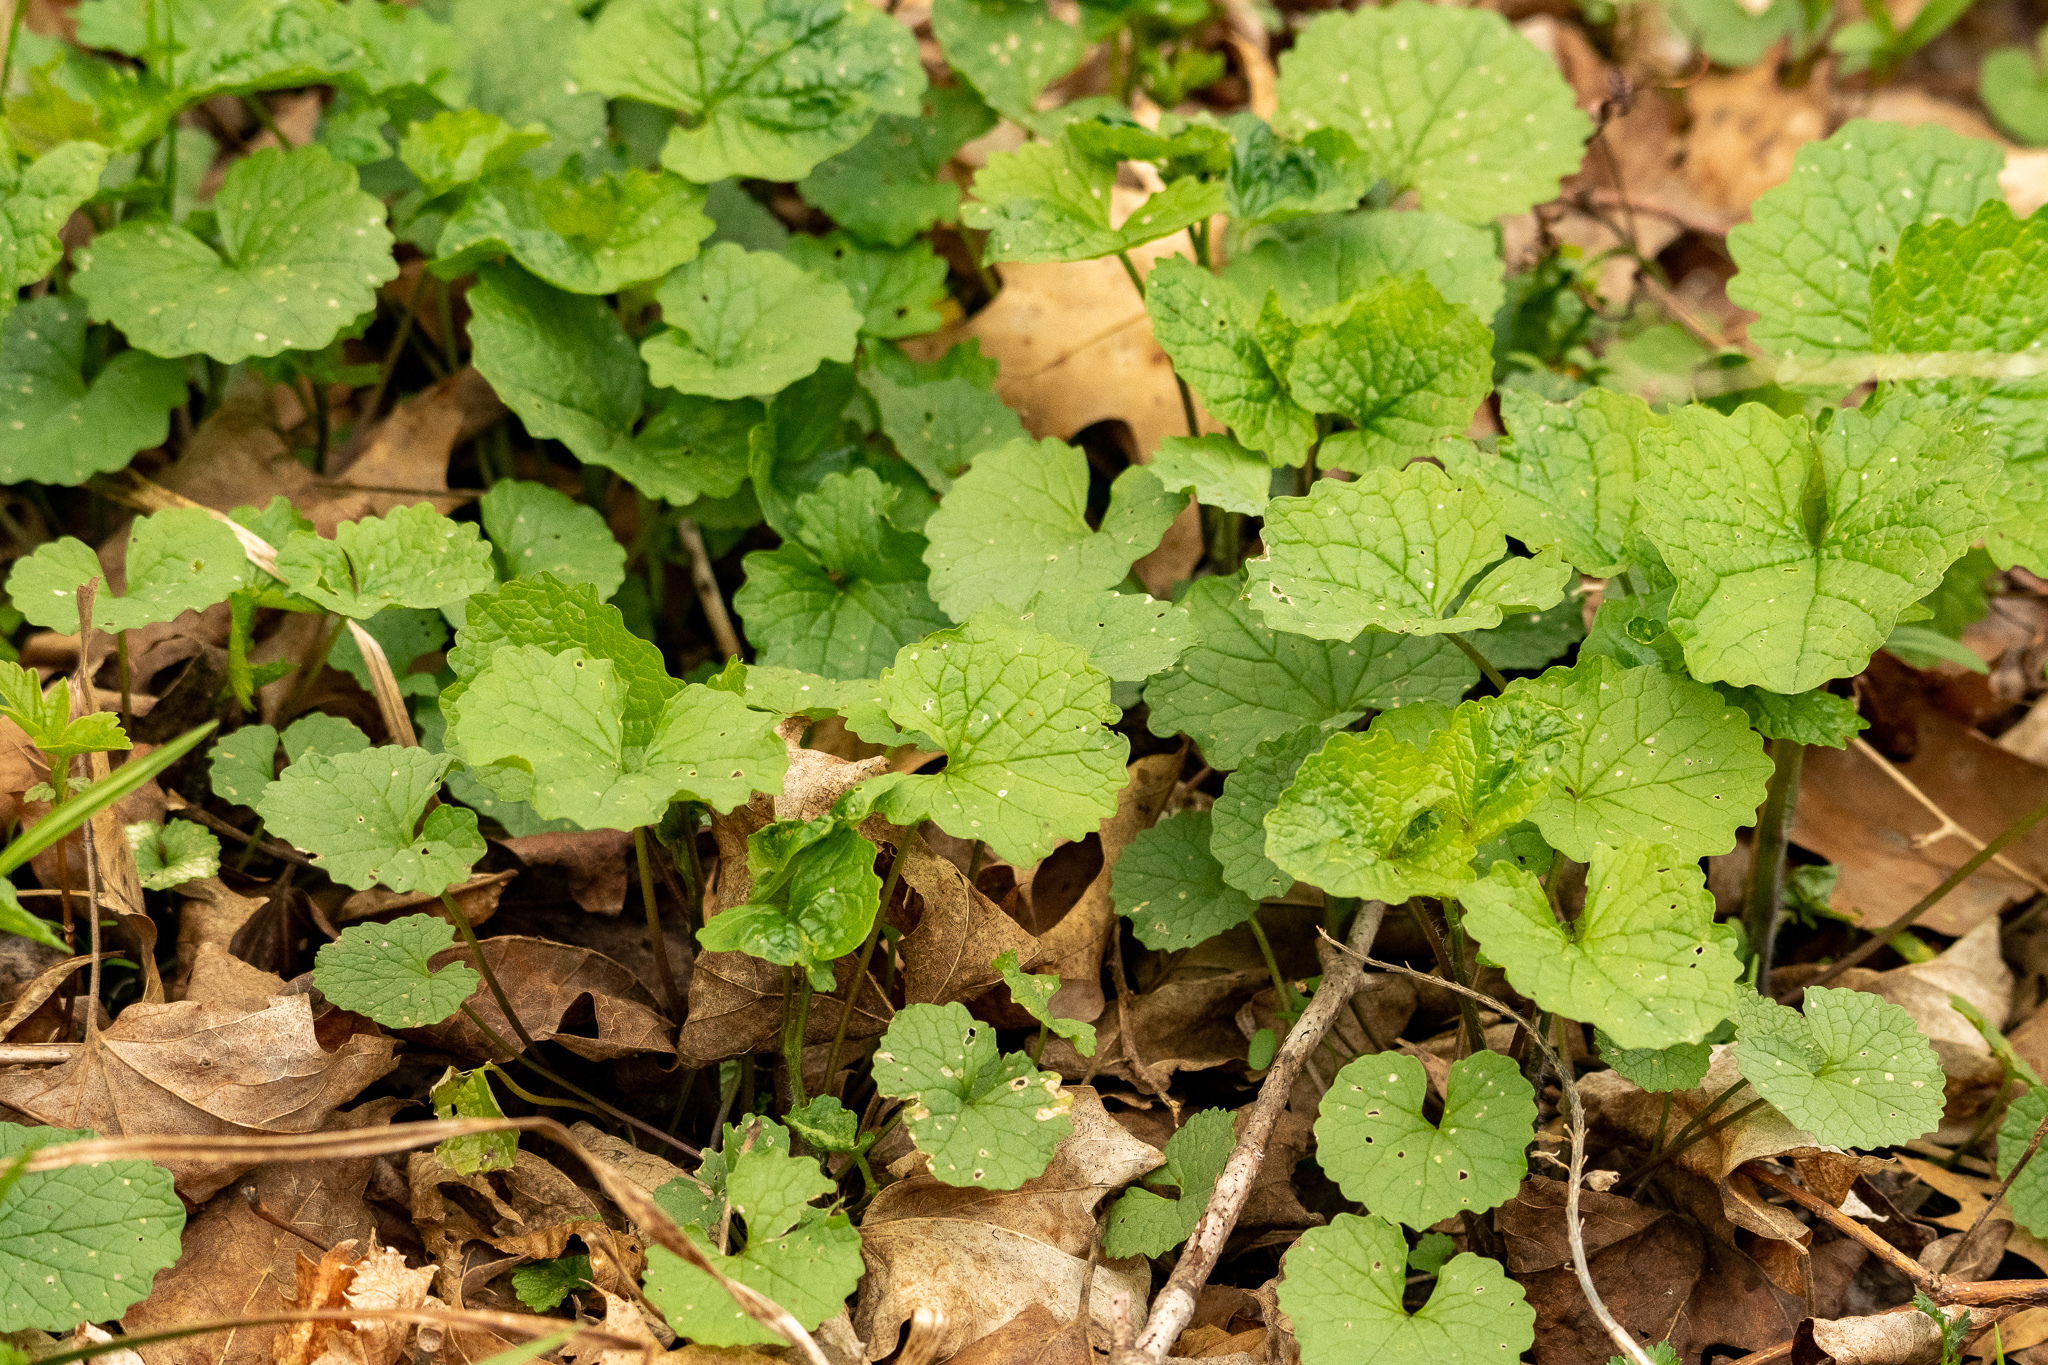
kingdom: Plantae
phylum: Tracheophyta
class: Magnoliopsida
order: Brassicales
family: Brassicaceae
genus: Alliaria
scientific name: Alliaria petiolata
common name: Garlic mustard
